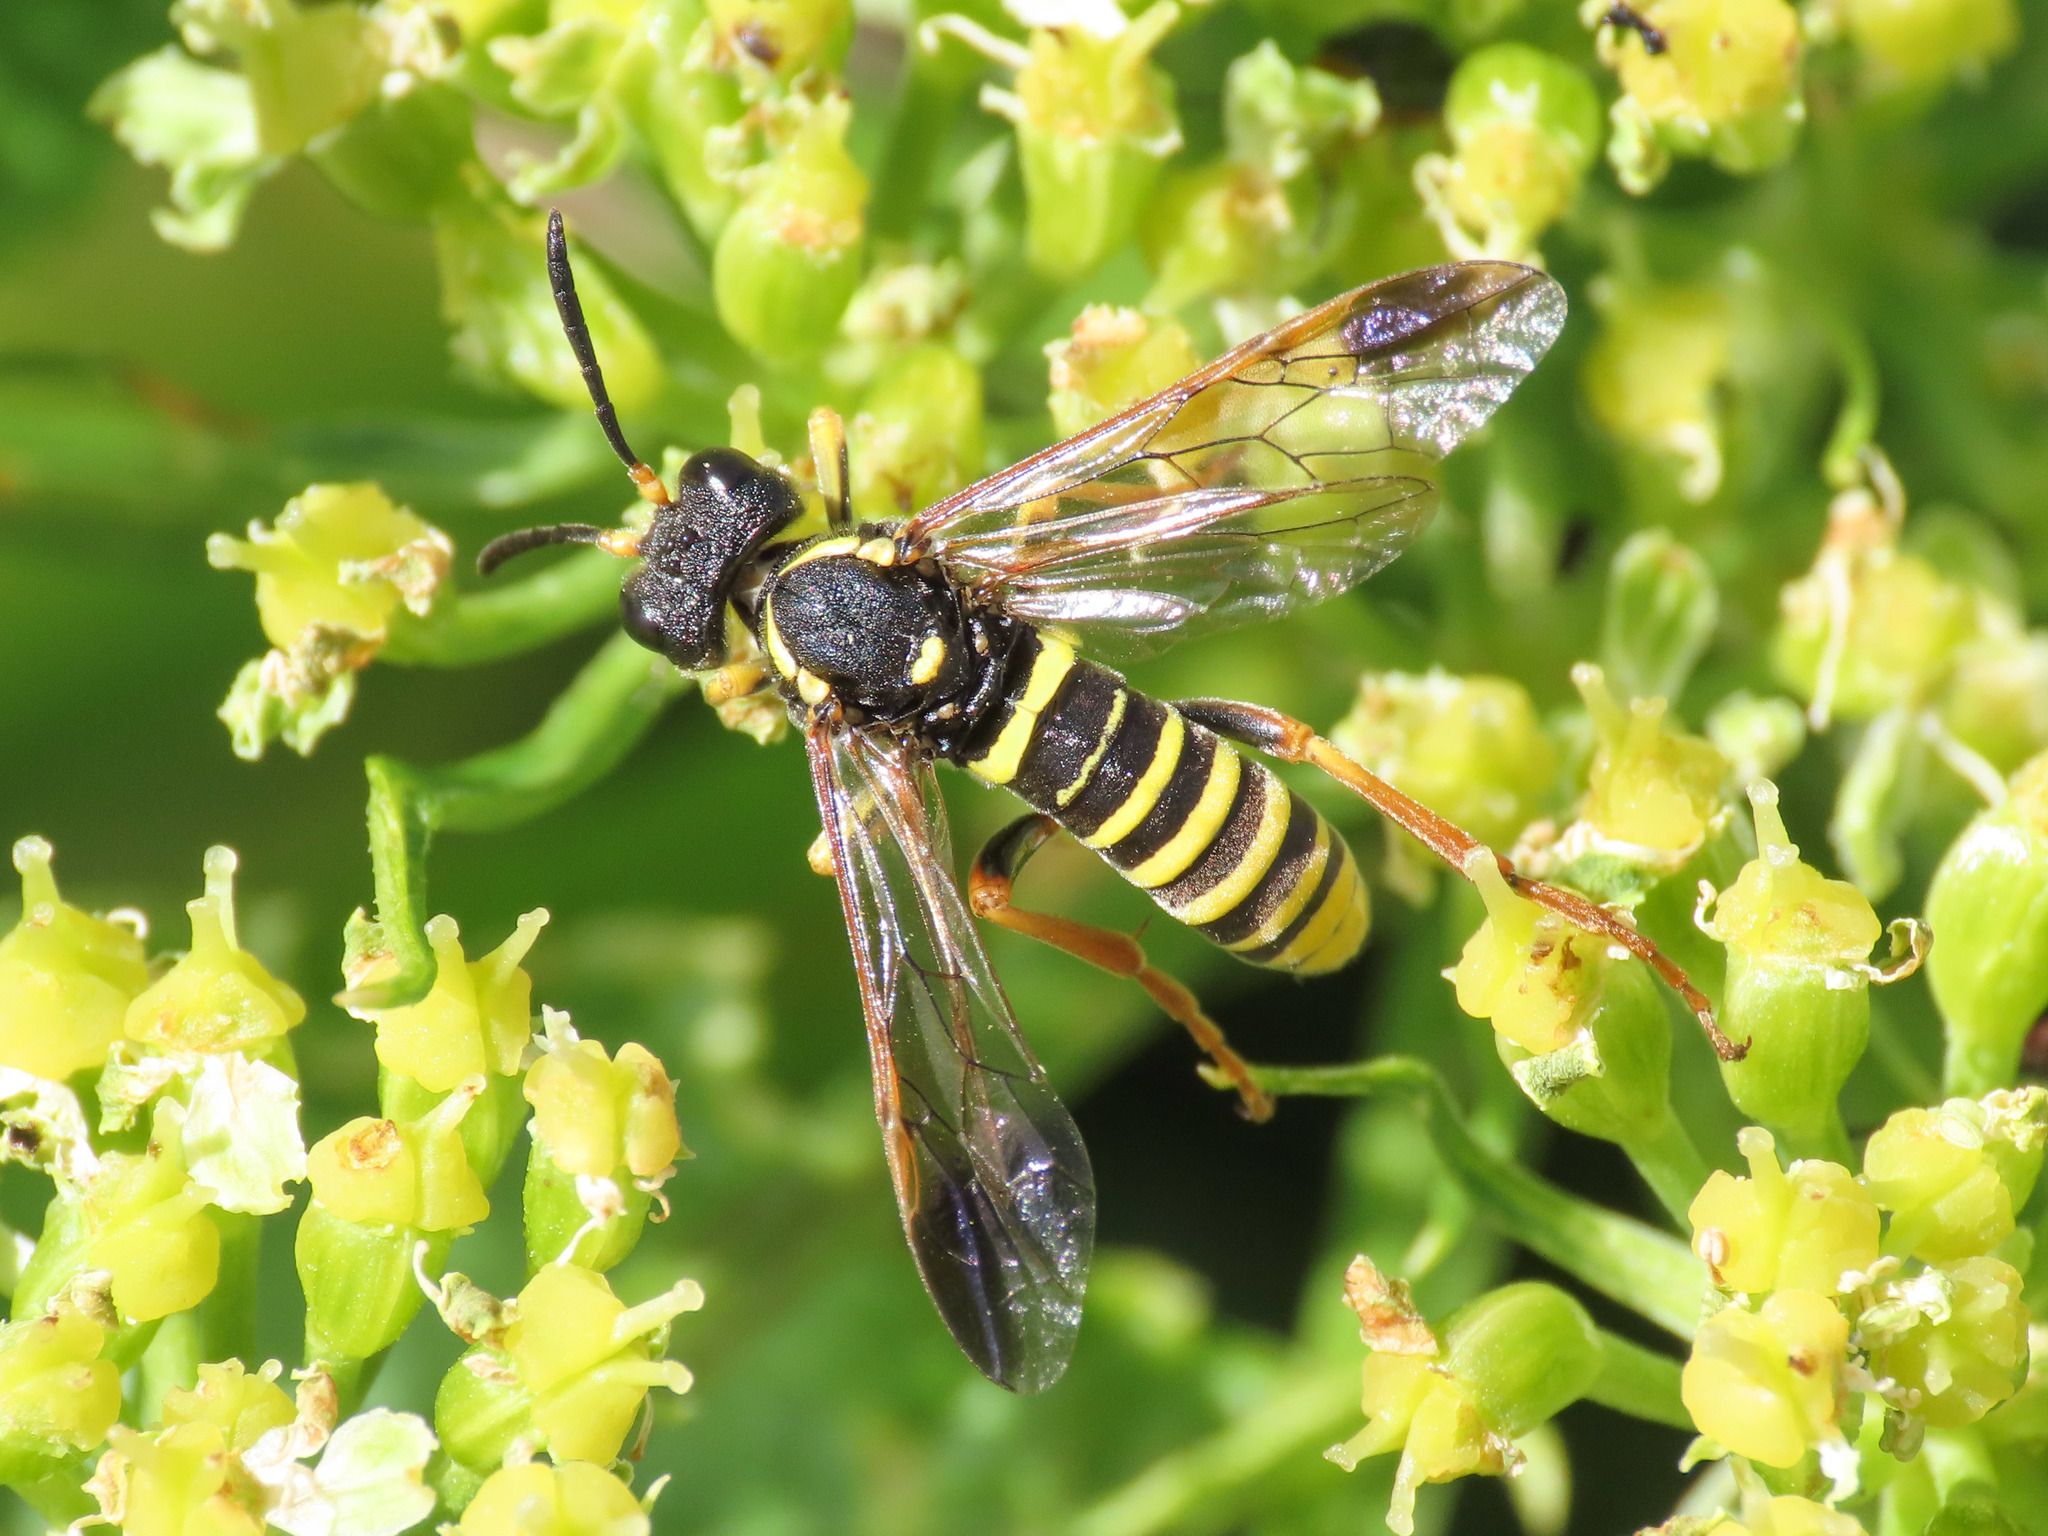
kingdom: Animalia
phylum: Arthropoda
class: Insecta
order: Hymenoptera
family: Tenthredinidae
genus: Tenthredo
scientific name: Tenthredo vespa
